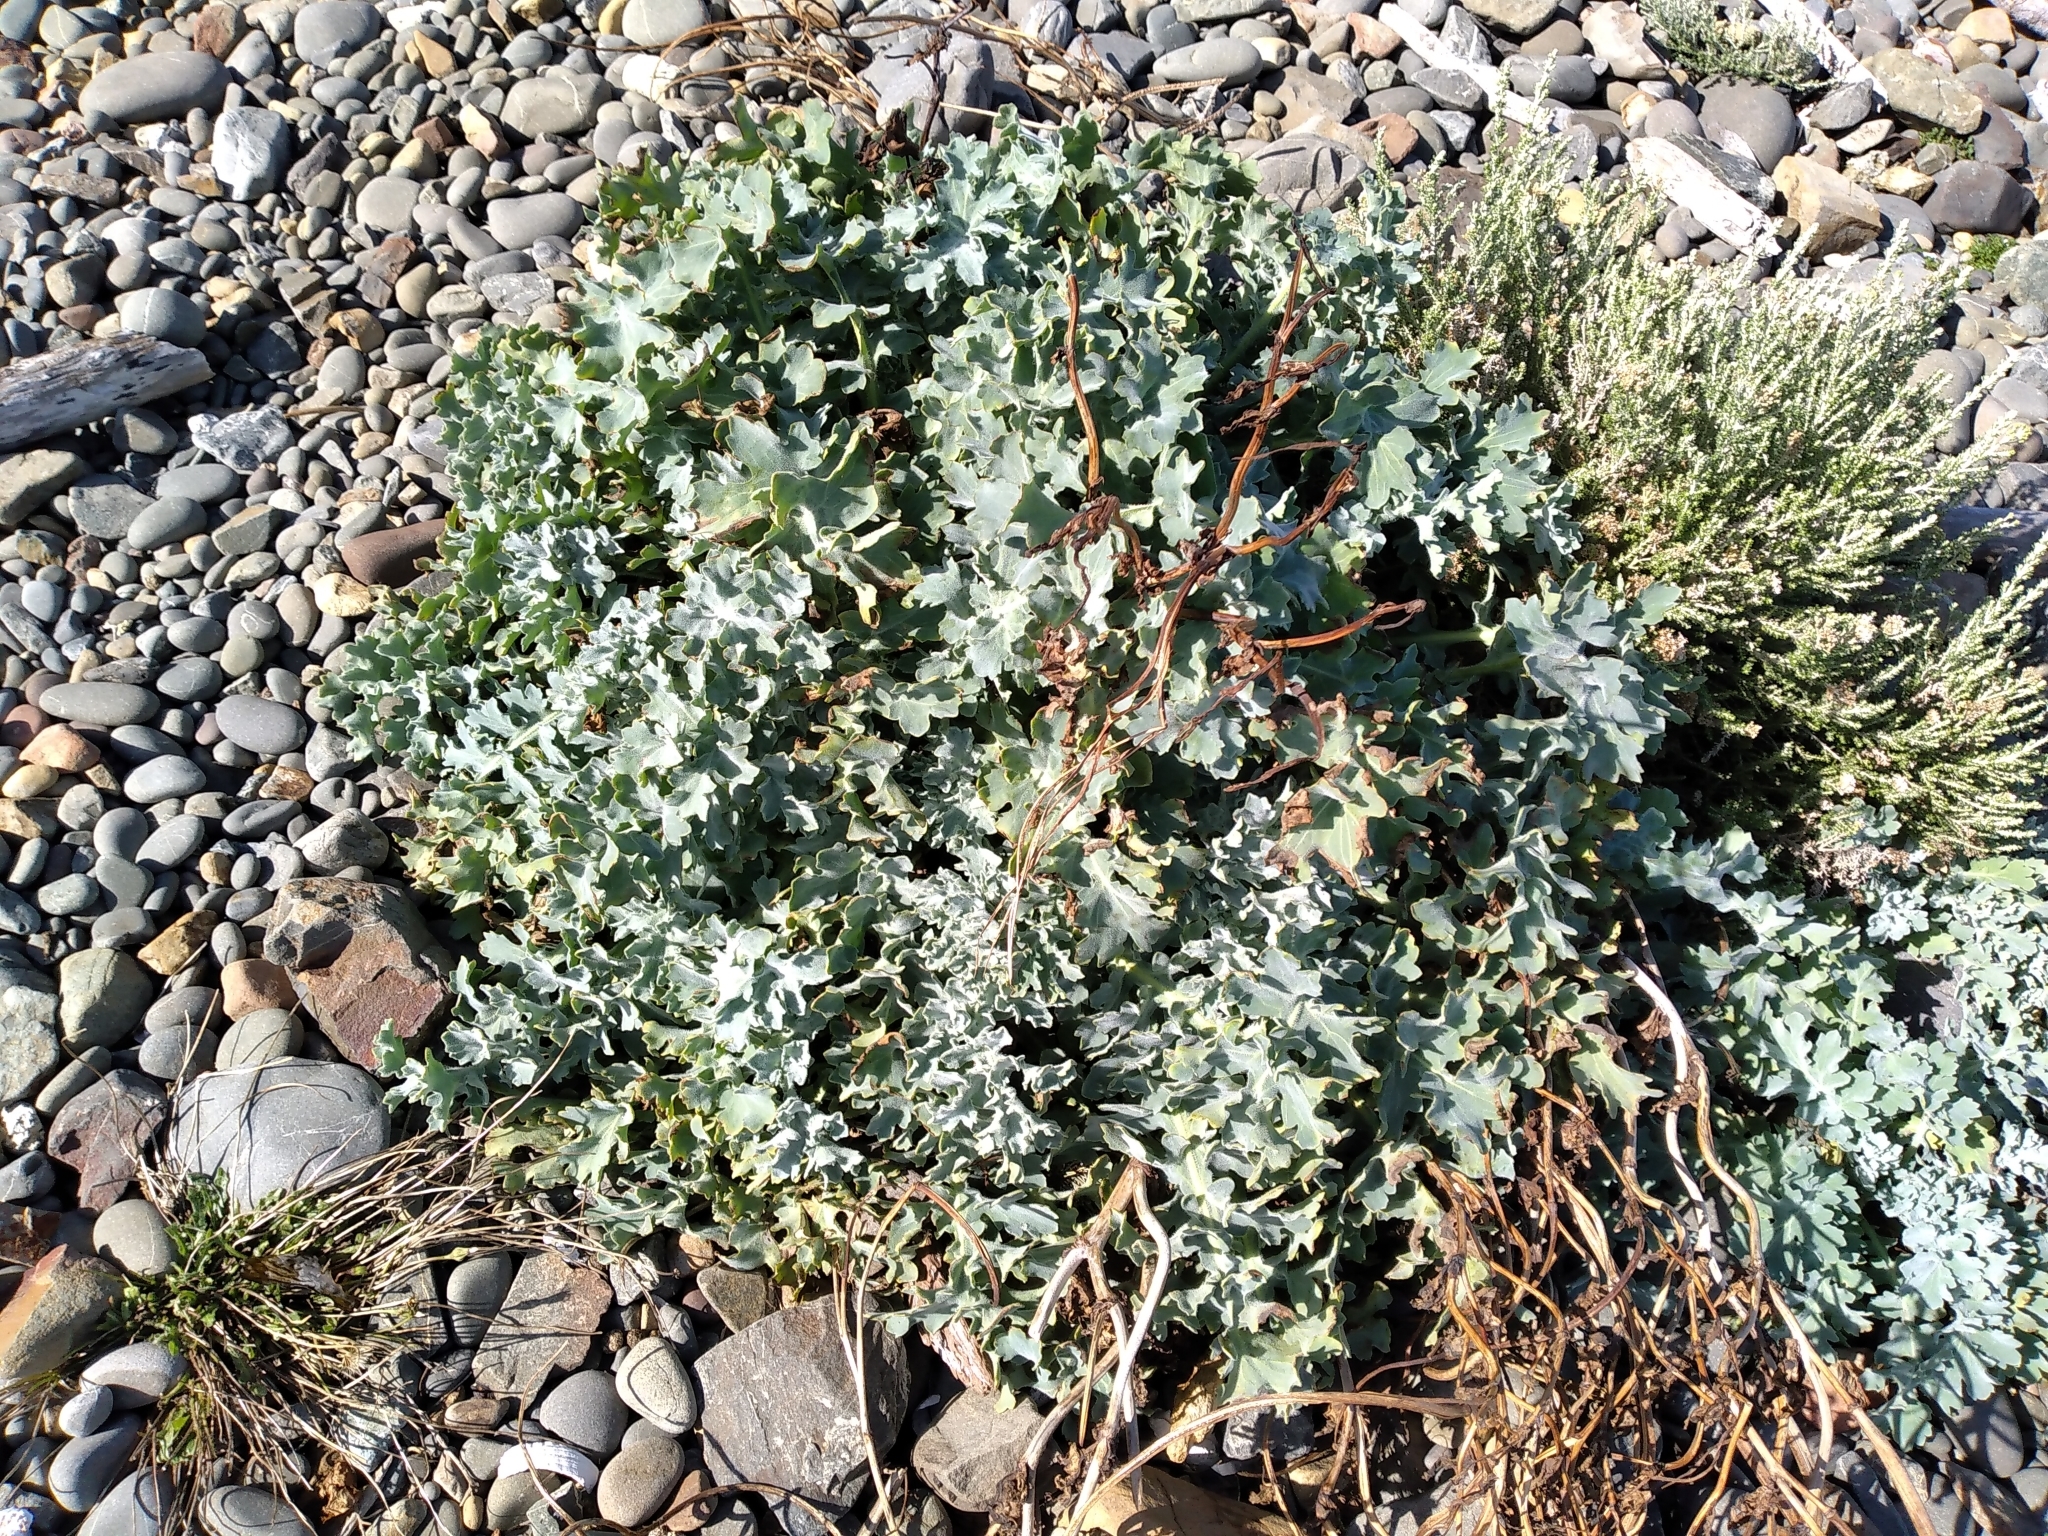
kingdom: Plantae
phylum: Tracheophyta
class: Magnoliopsida
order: Ranunculales
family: Papaveraceae
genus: Glaucium
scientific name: Glaucium flavum
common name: Yellow horned-poppy
